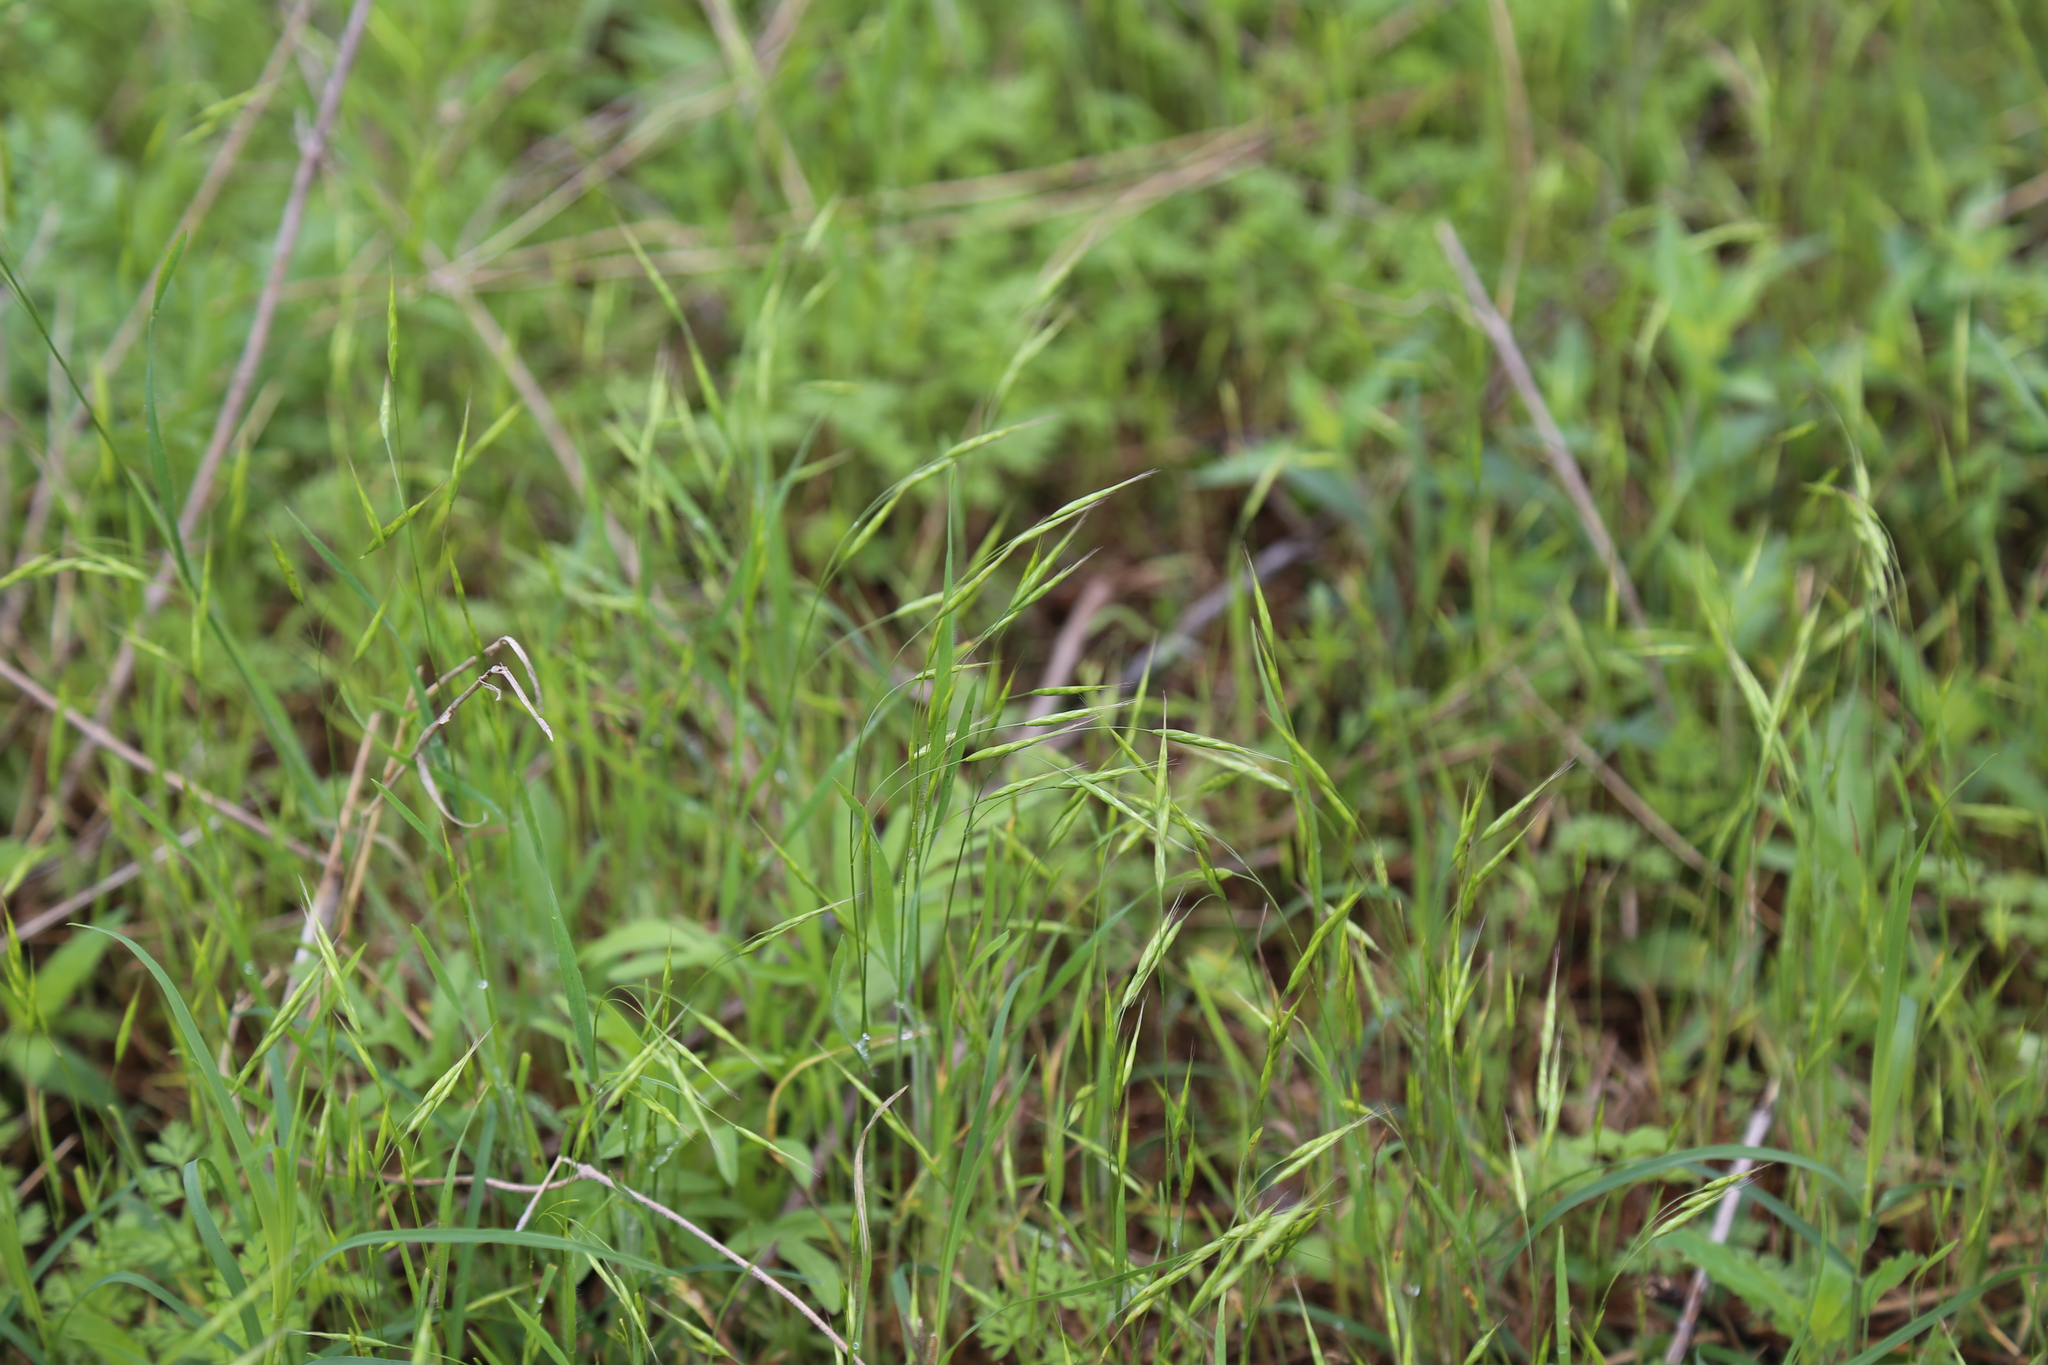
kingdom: Plantae
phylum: Tracheophyta
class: Liliopsida
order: Poales
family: Poaceae
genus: Bromus
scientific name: Bromus japonicus
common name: Japanese brome
